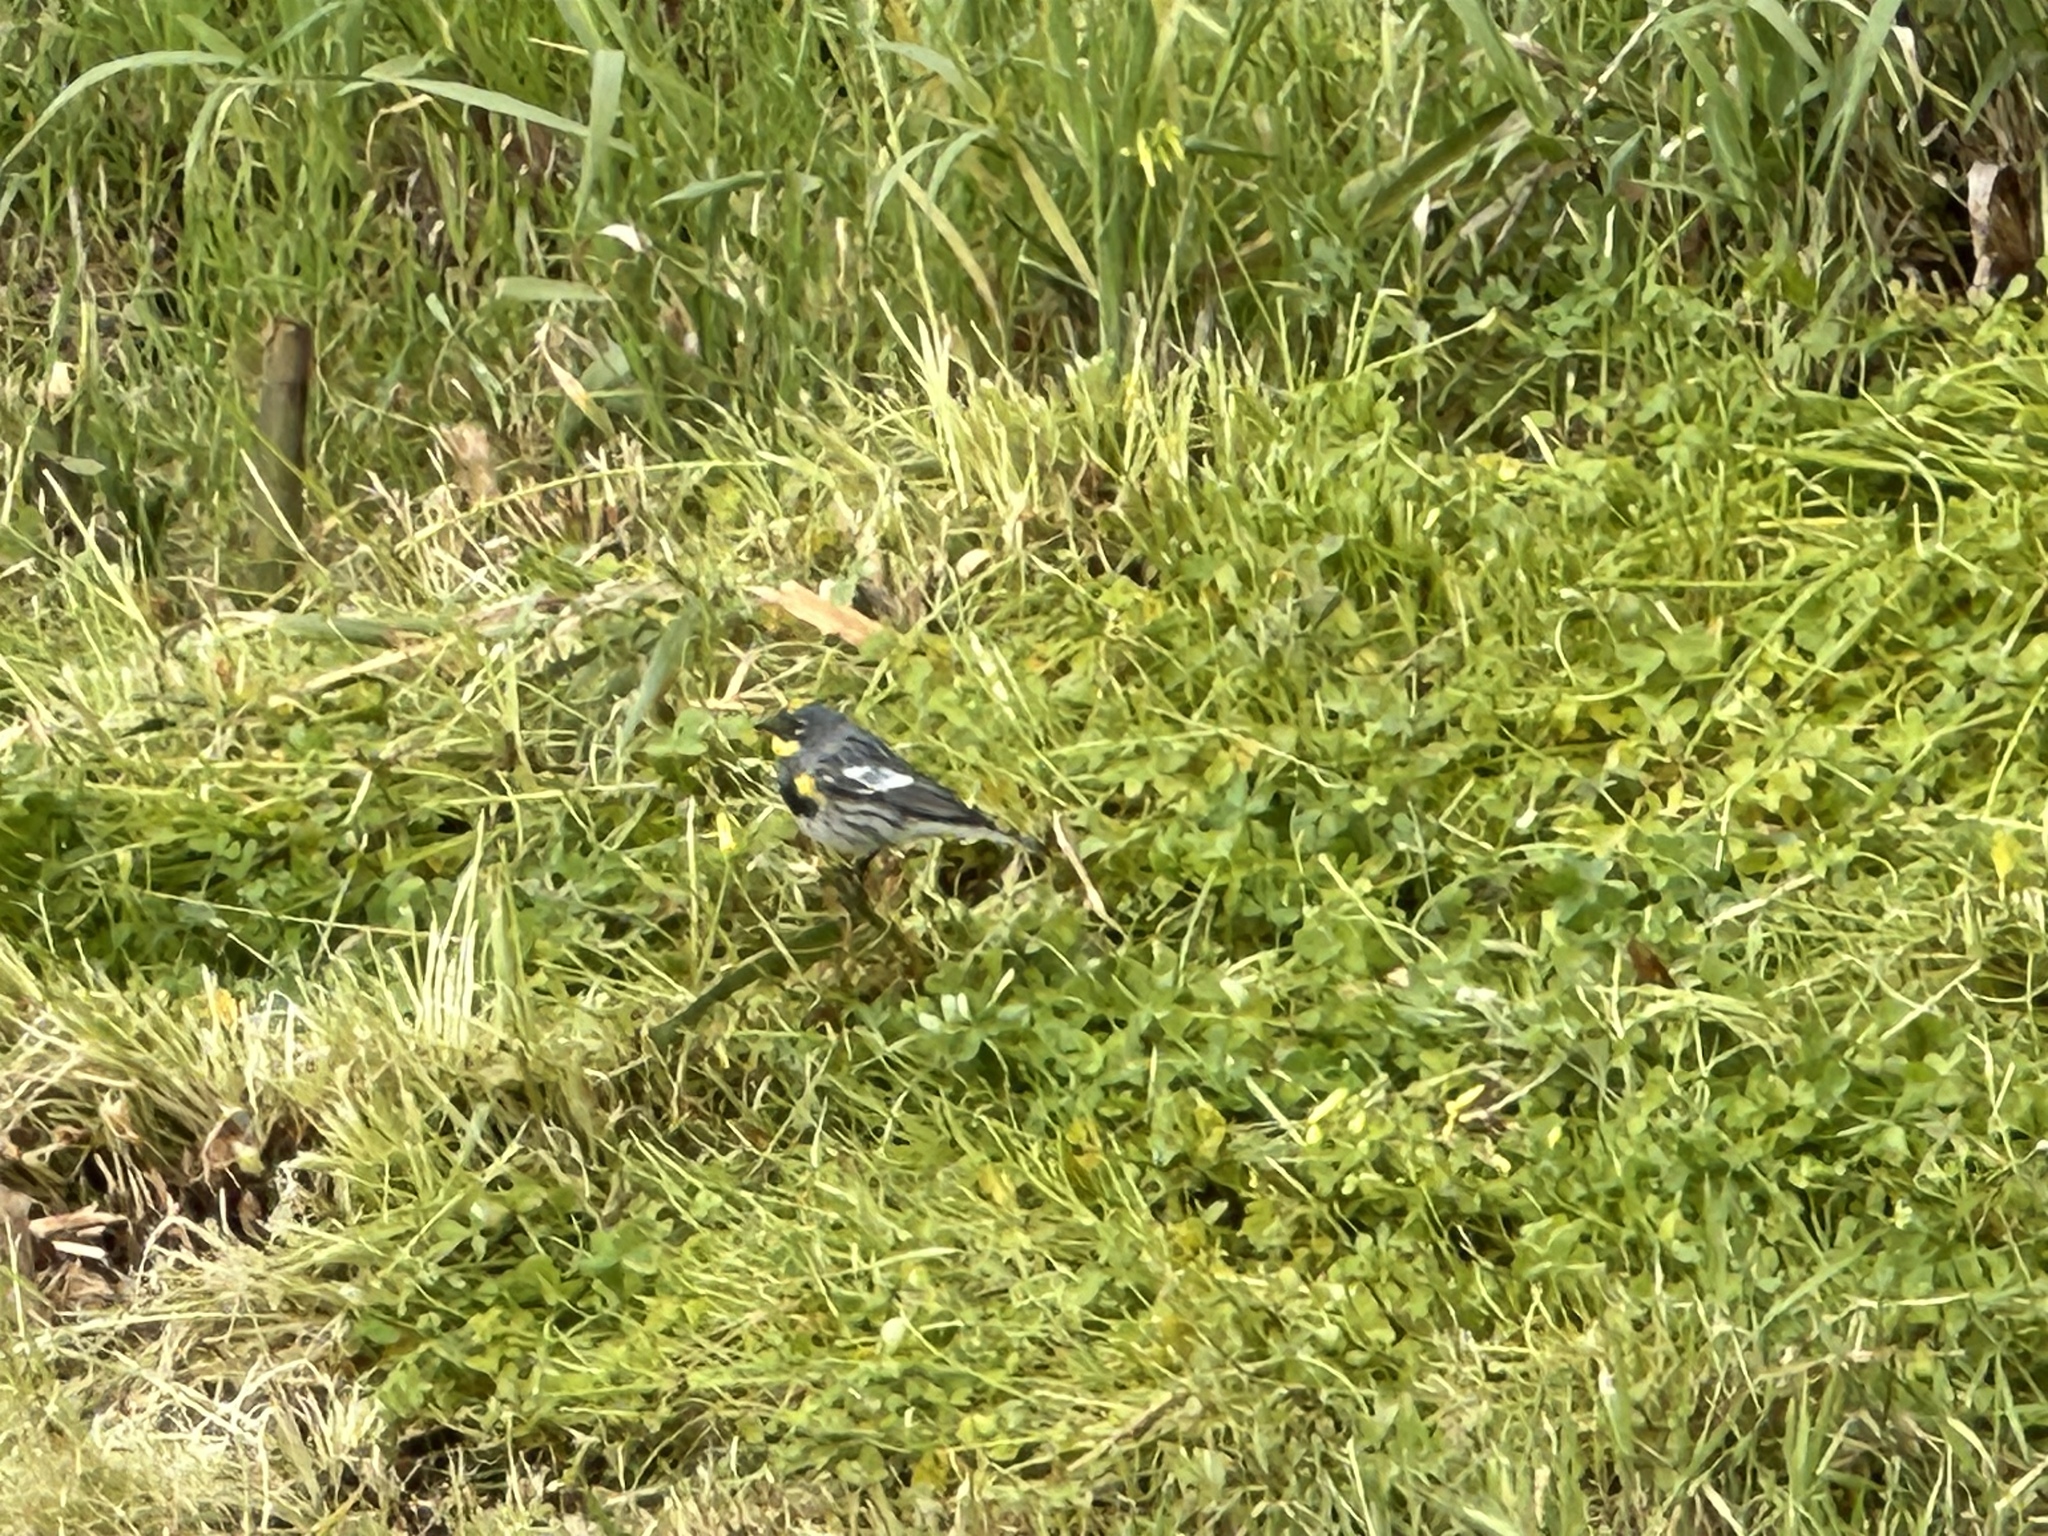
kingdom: Animalia
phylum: Chordata
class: Aves
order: Passeriformes
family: Parulidae
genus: Setophaga
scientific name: Setophaga coronata
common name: Myrtle warbler
